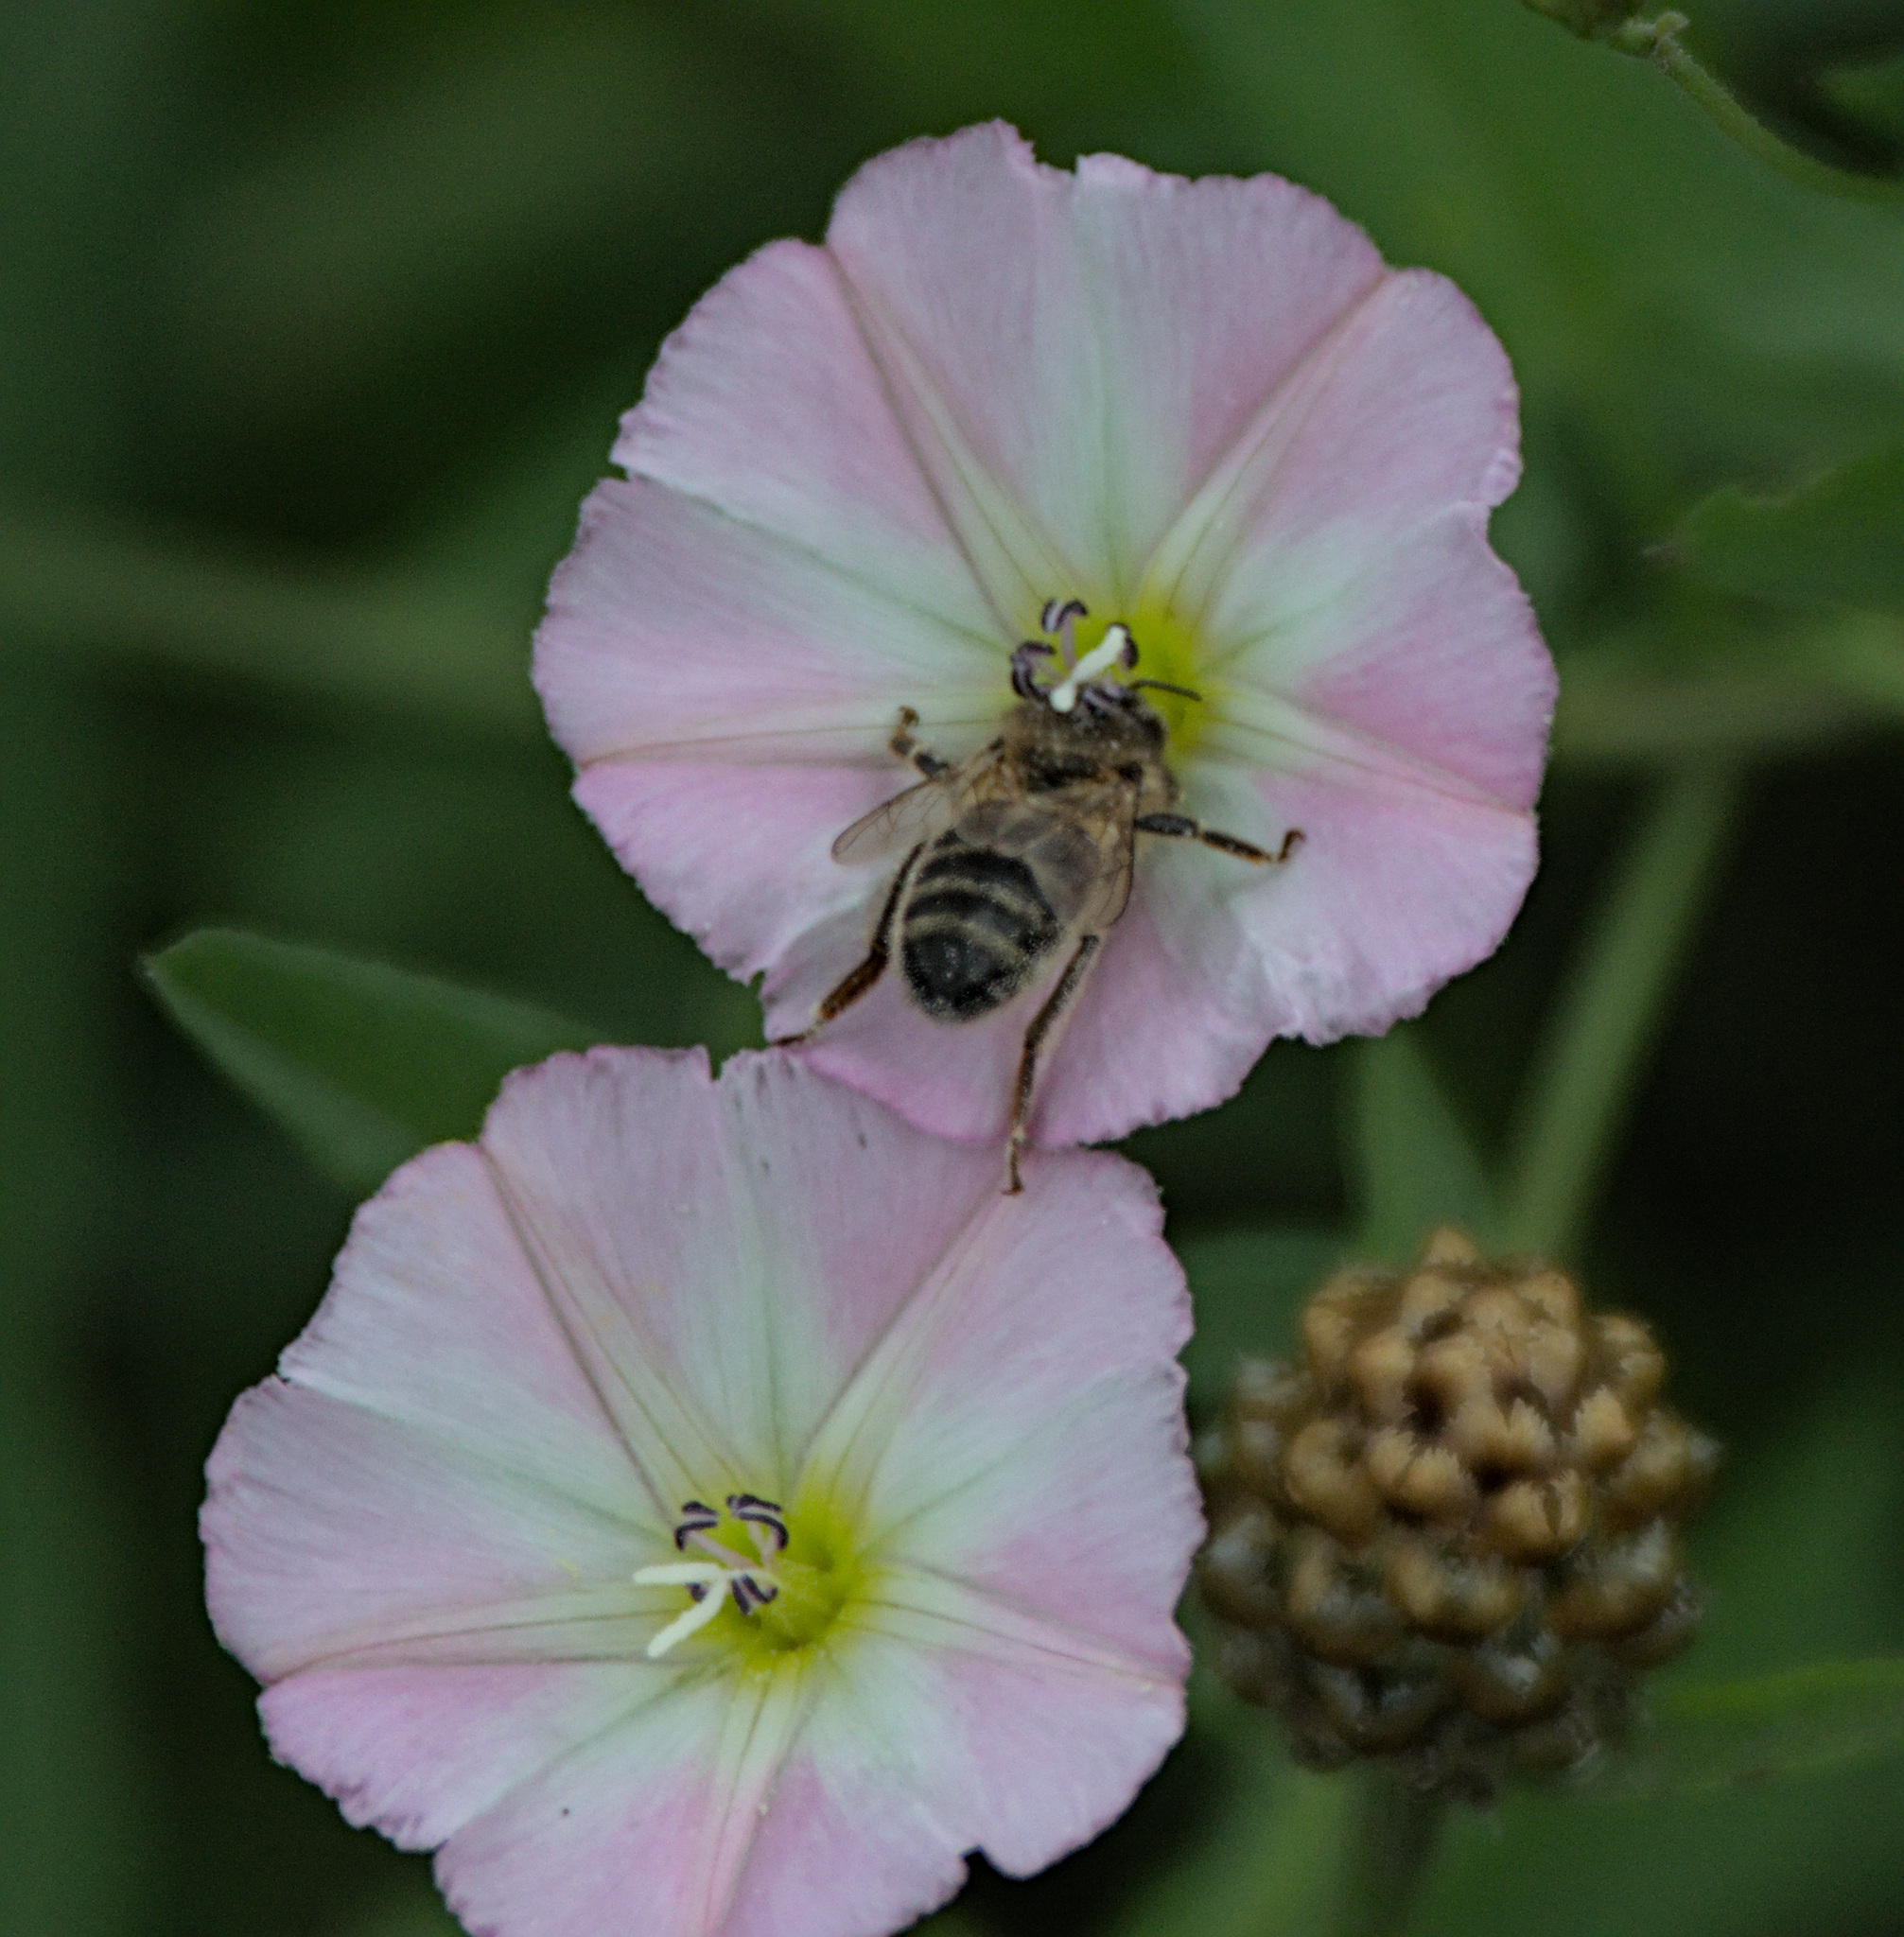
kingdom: Animalia
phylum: Arthropoda
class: Insecta
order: Hymenoptera
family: Apidae
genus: Apis
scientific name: Apis mellifera
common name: Honey bee
